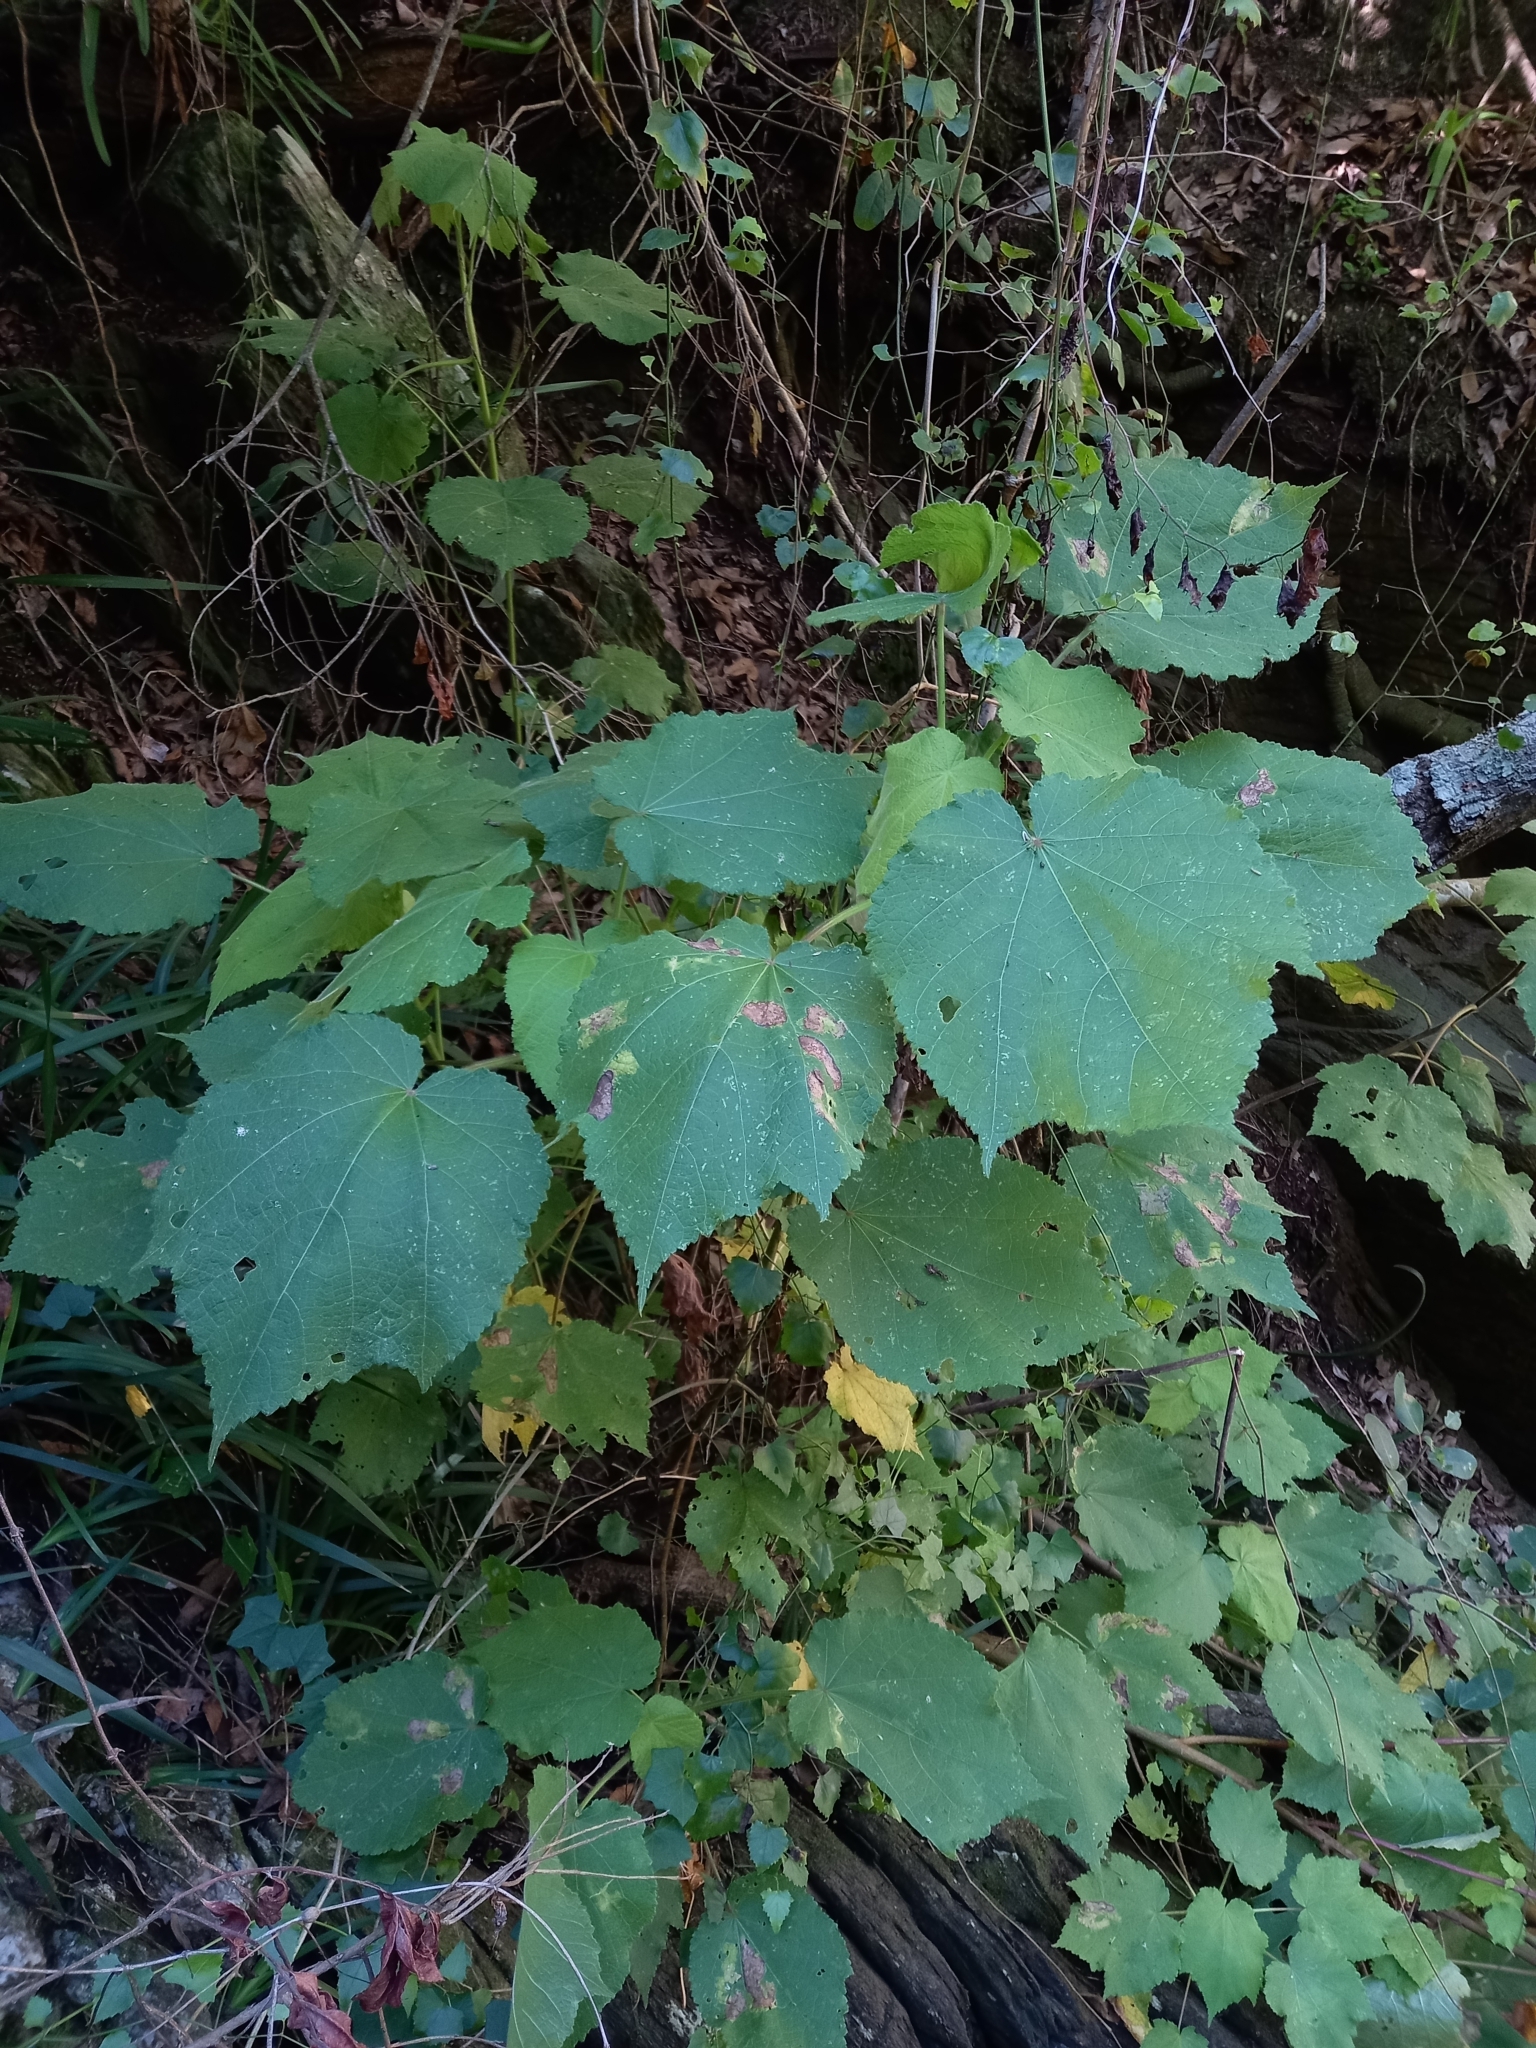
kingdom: Plantae
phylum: Tracheophyta
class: Magnoliopsida
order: Malvales
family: Malvaceae
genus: Sparrmannia
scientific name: Sparrmannia africana
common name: African-hemp
